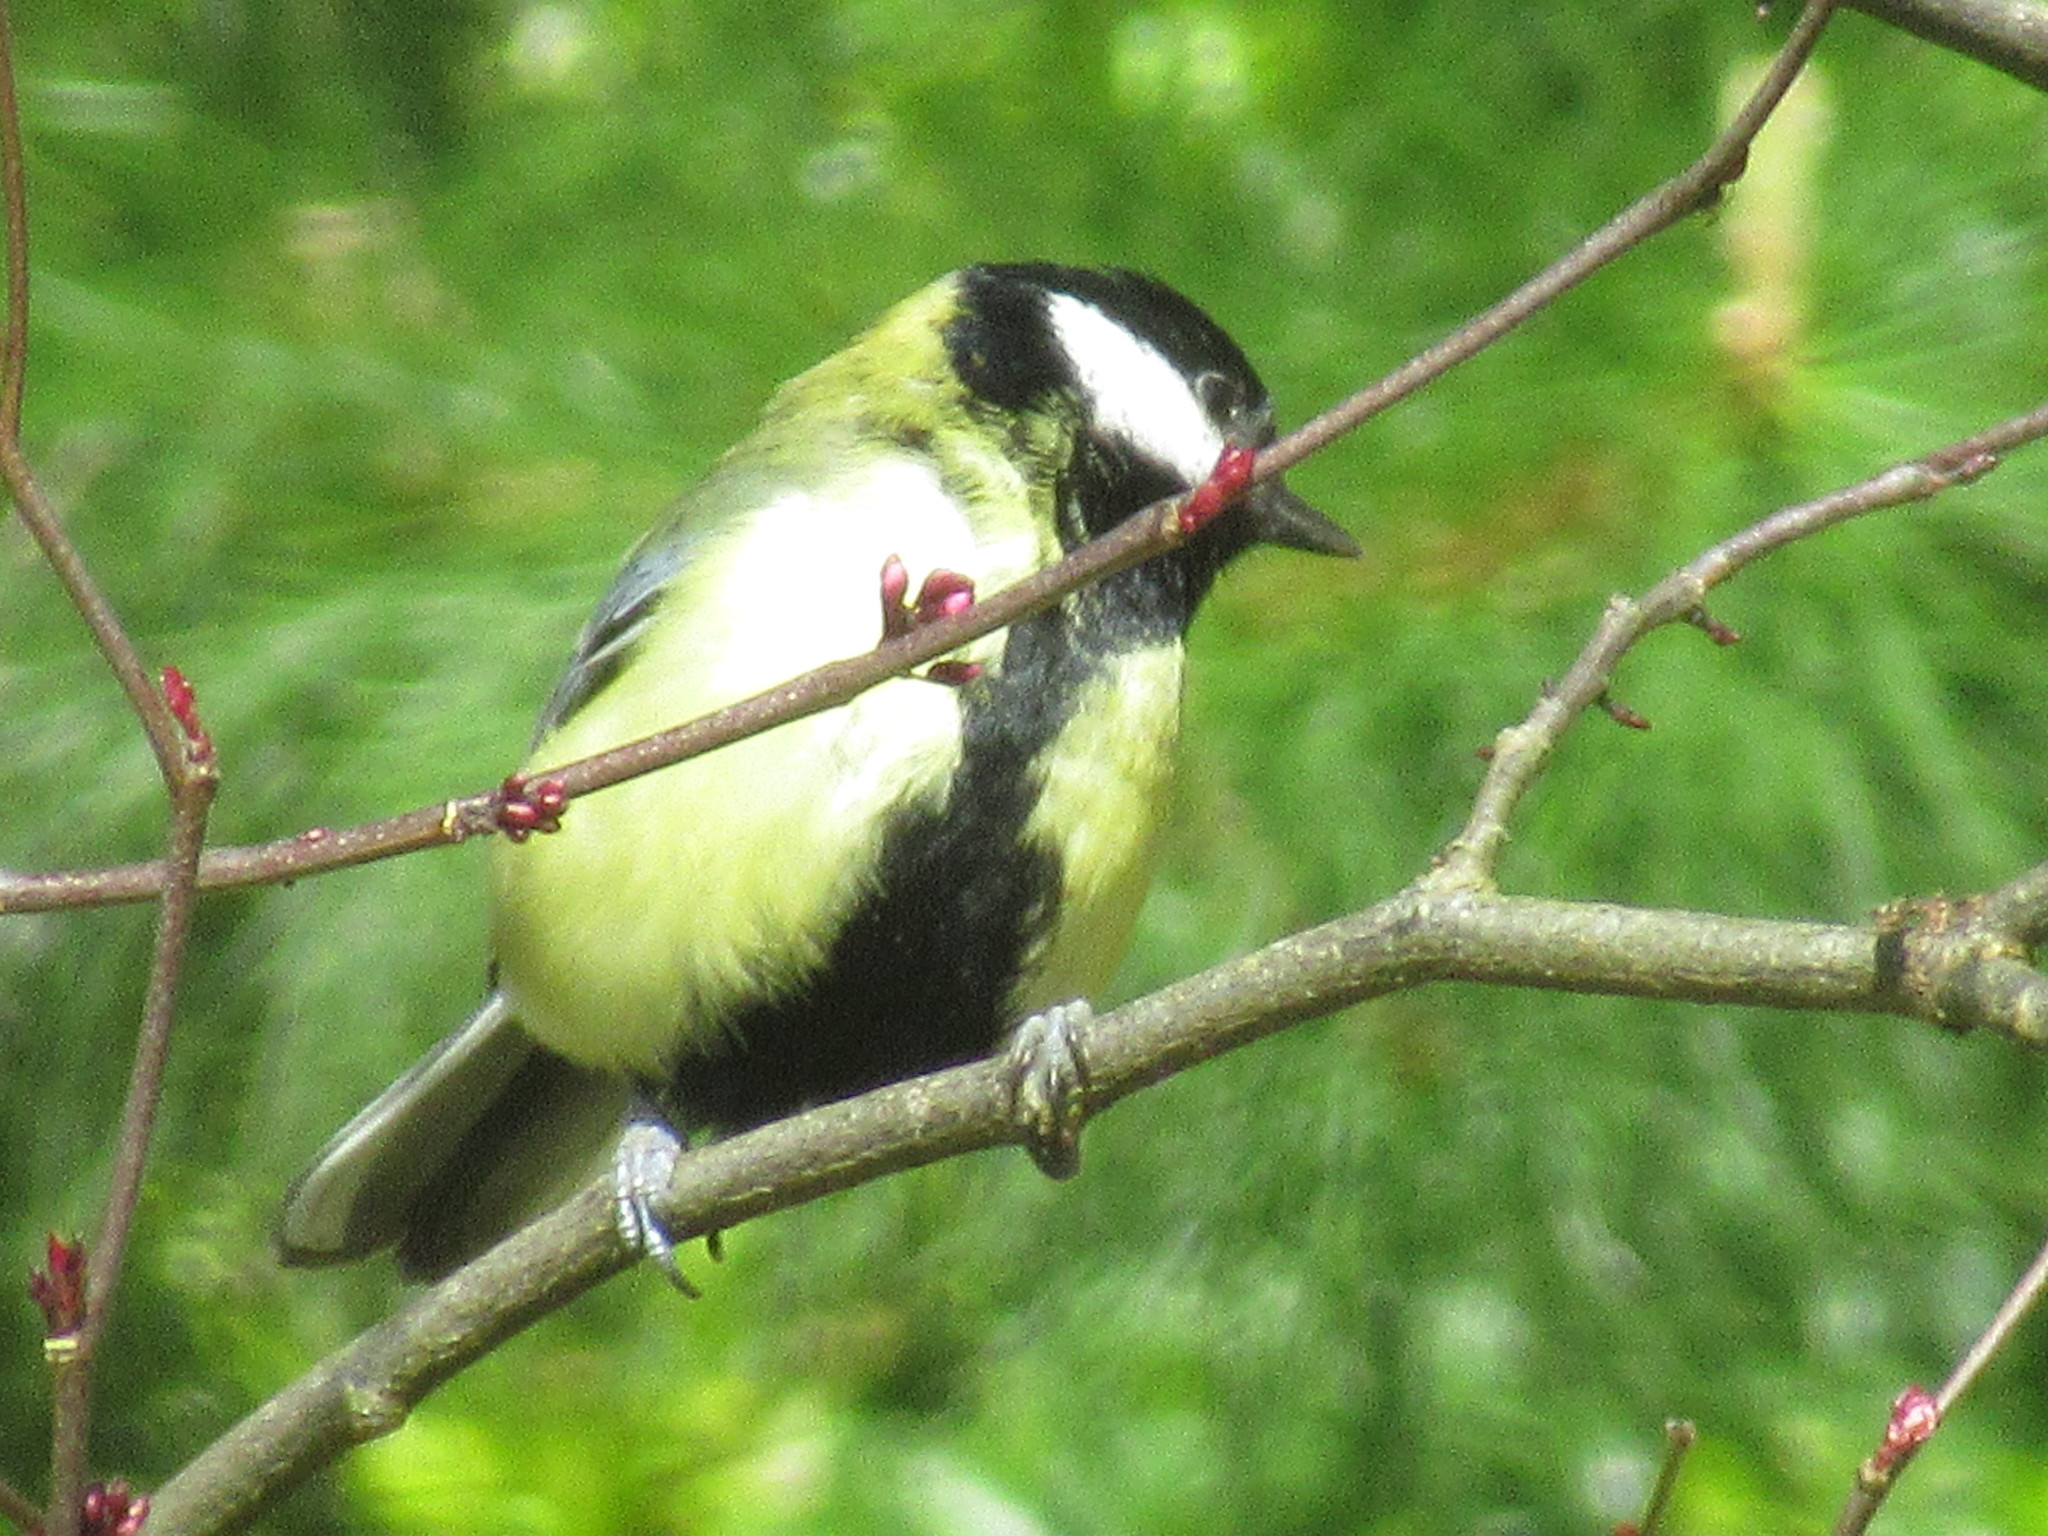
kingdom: Animalia
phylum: Chordata
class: Aves
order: Passeriformes
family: Paridae
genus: Parus
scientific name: Parus major
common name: Great tit
